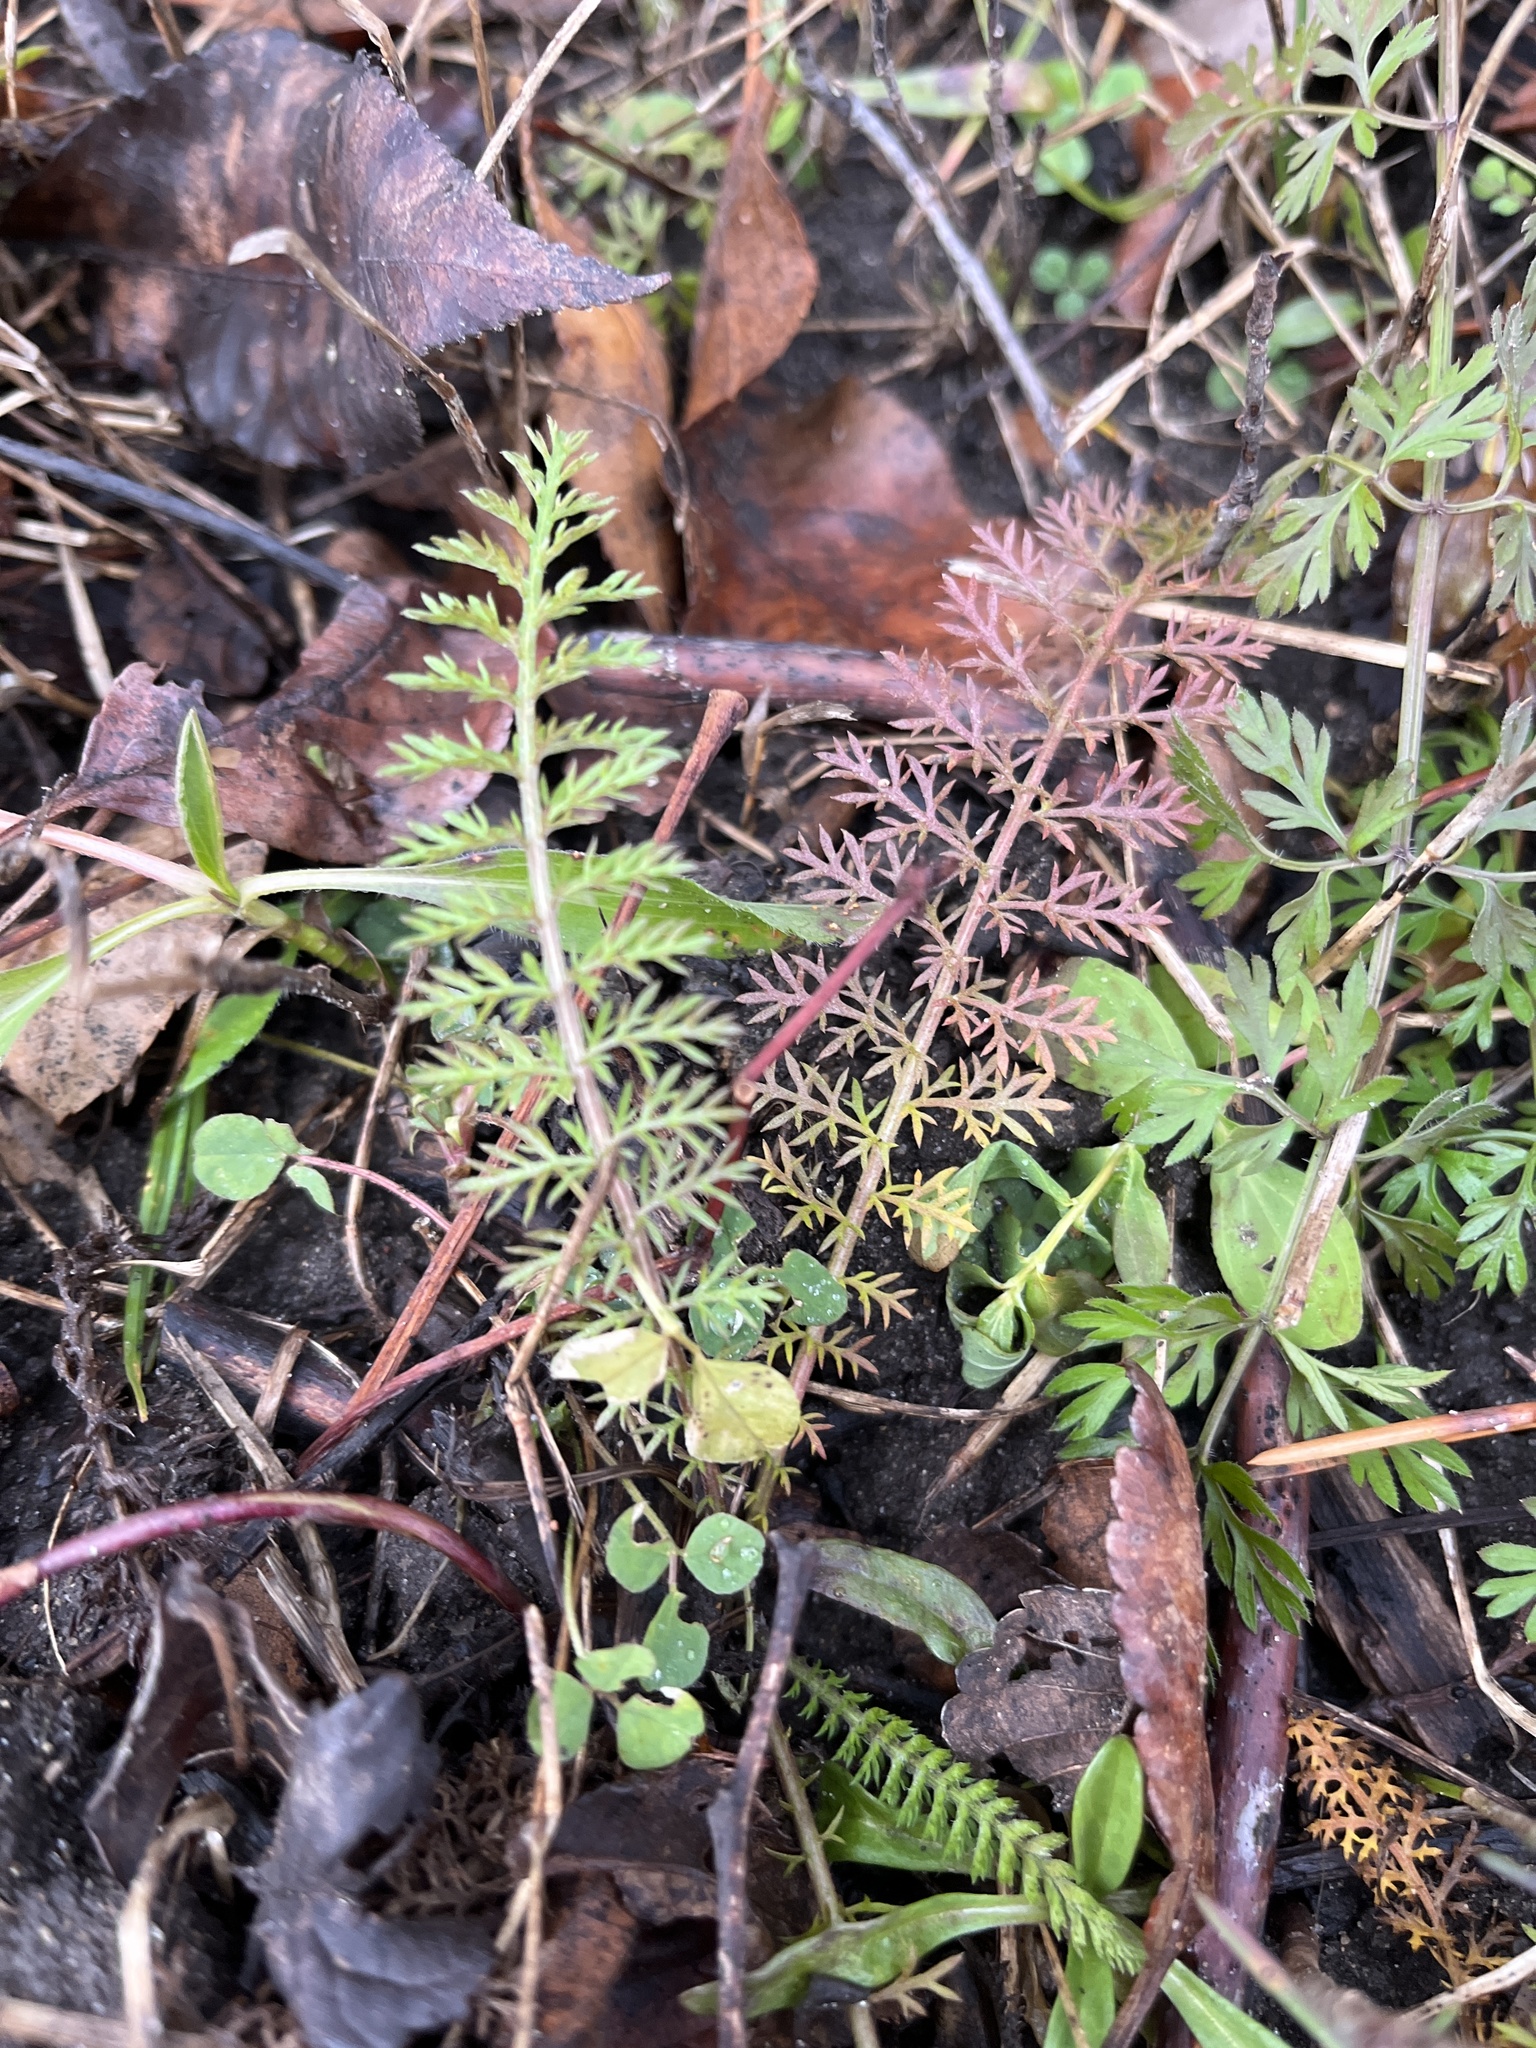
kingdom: Plantae
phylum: Tracheophyta
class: Magnoliopsida
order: Asterales
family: Asteraceae
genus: Achillea
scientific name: Achillea millefolium
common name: Yarrow
